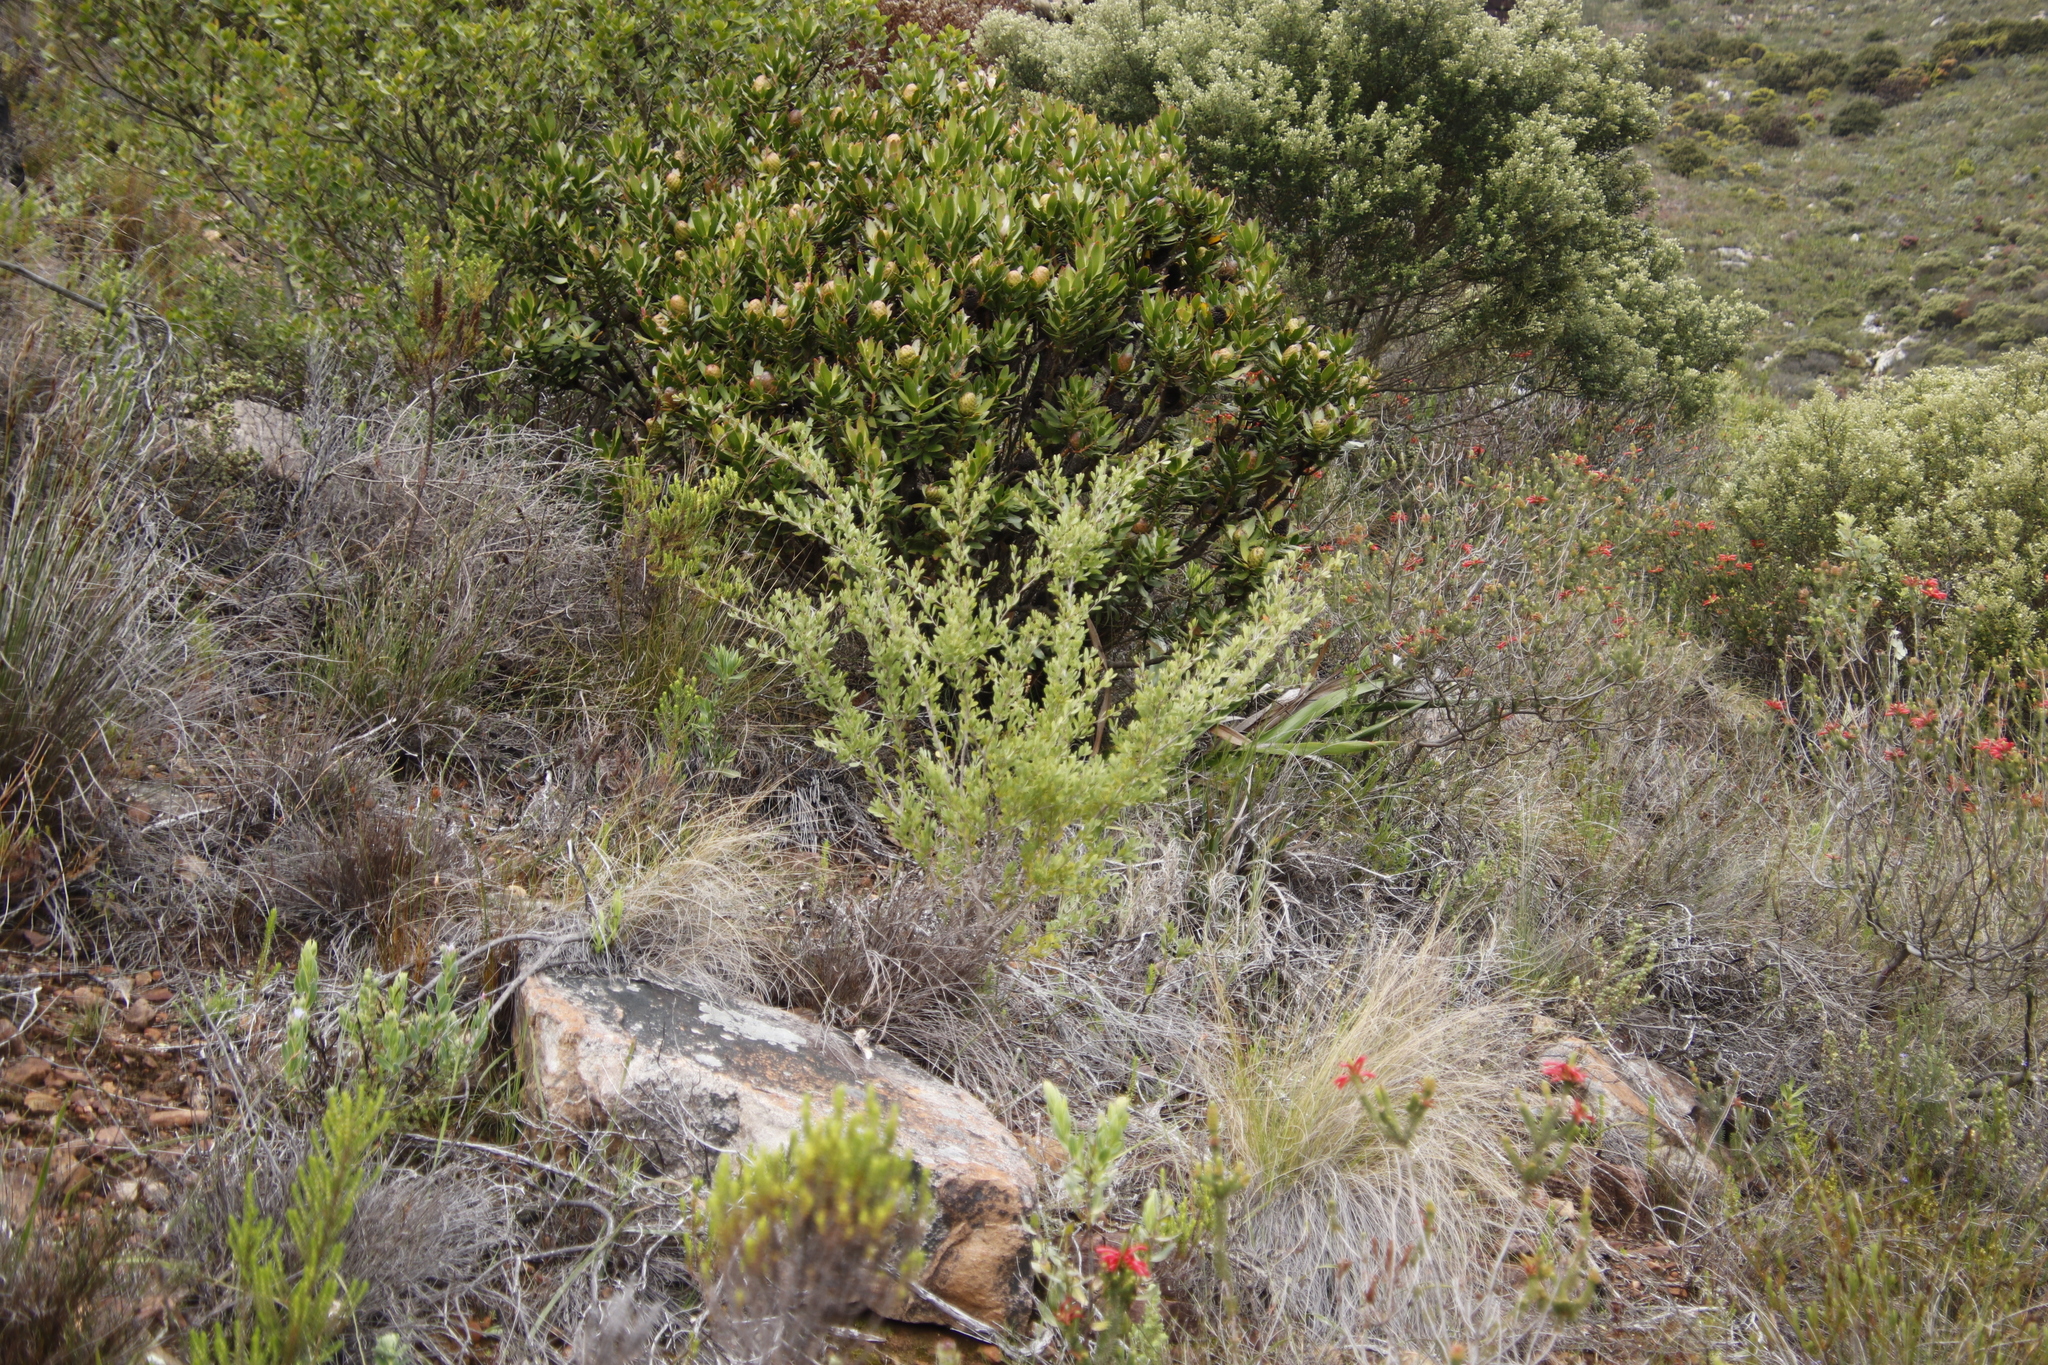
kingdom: Plantae
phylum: Tracheophyta
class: Magnoliopsida
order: Myrtales
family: Myrtaceae
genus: Leptospermum
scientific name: Leptospermum laevigatum
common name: Australian teatree
